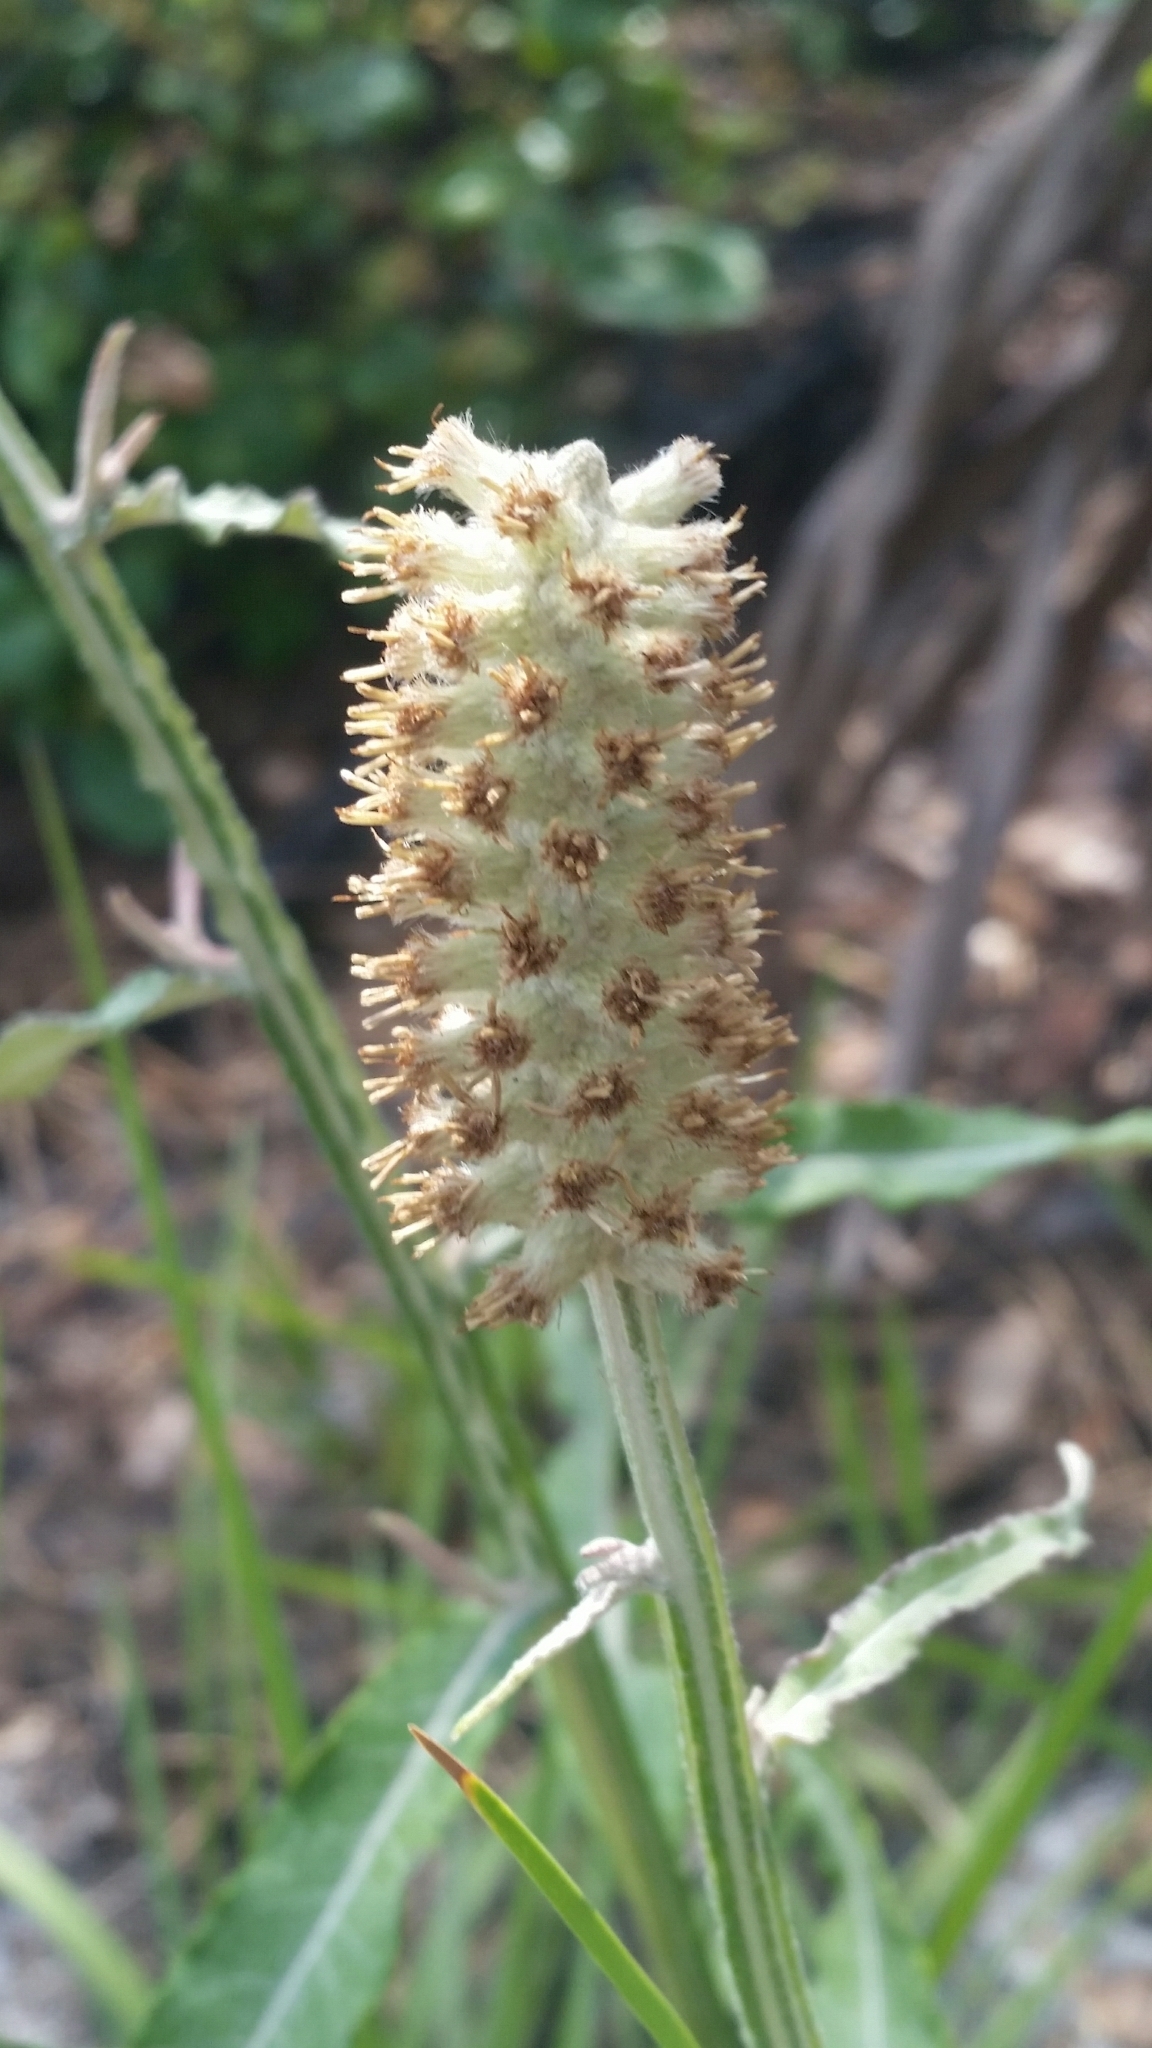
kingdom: Plantae
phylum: Tracheophyta
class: Magnoliopsida
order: Asterales
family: Asteraceae
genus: Pterocaulon
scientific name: Pterocaulon pycnostachyum
